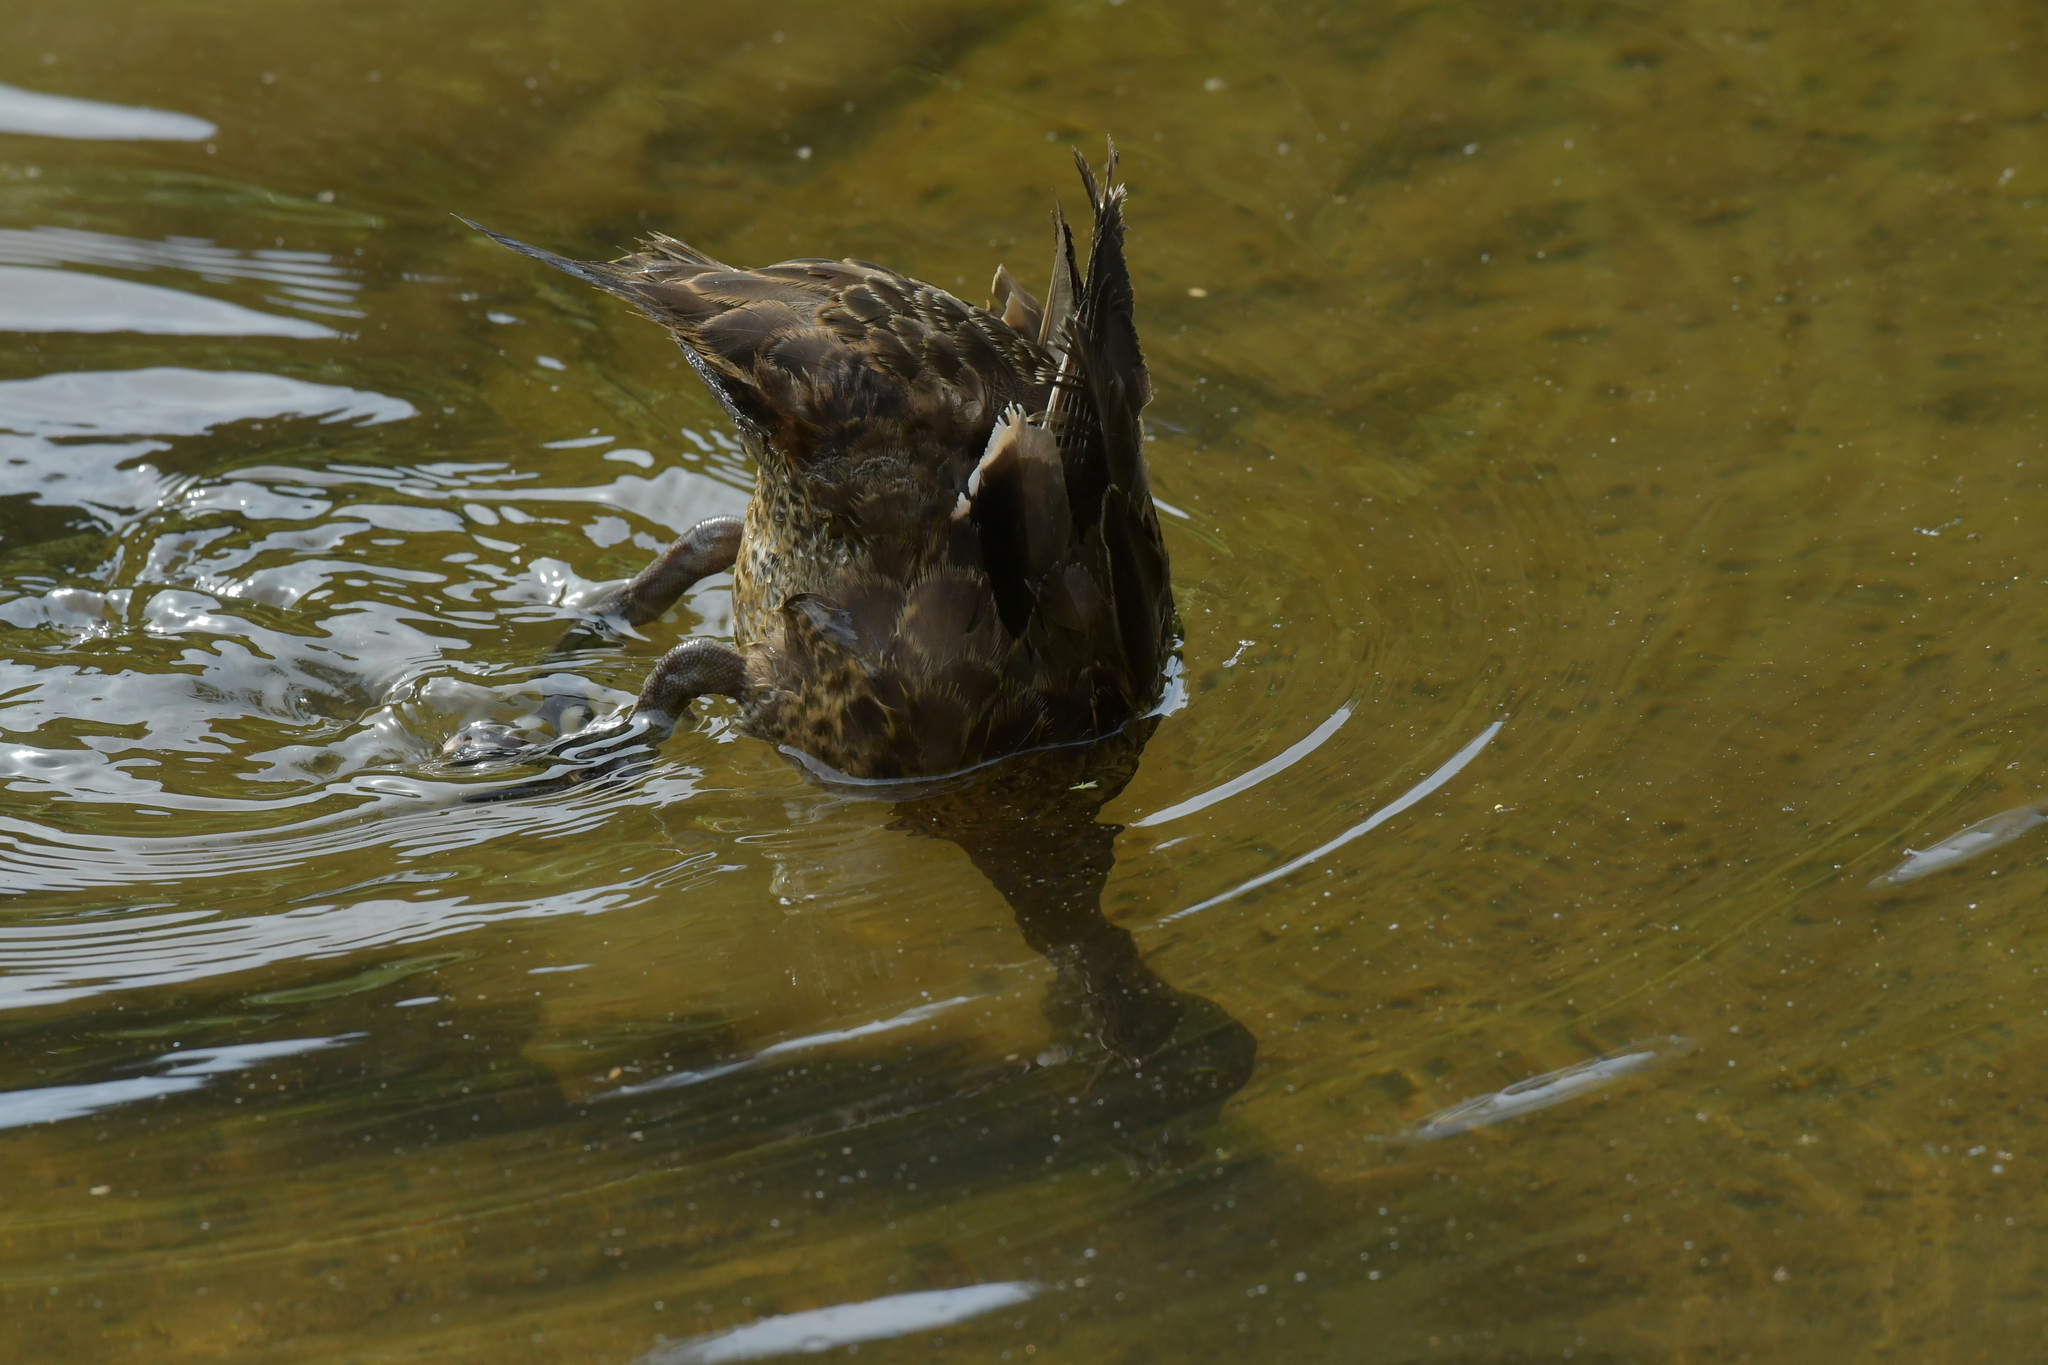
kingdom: Animalia
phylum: Chordata
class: Aves
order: Anseriformes
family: Anatidae
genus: Anas
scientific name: Anas chlorotis
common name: Brown teal
